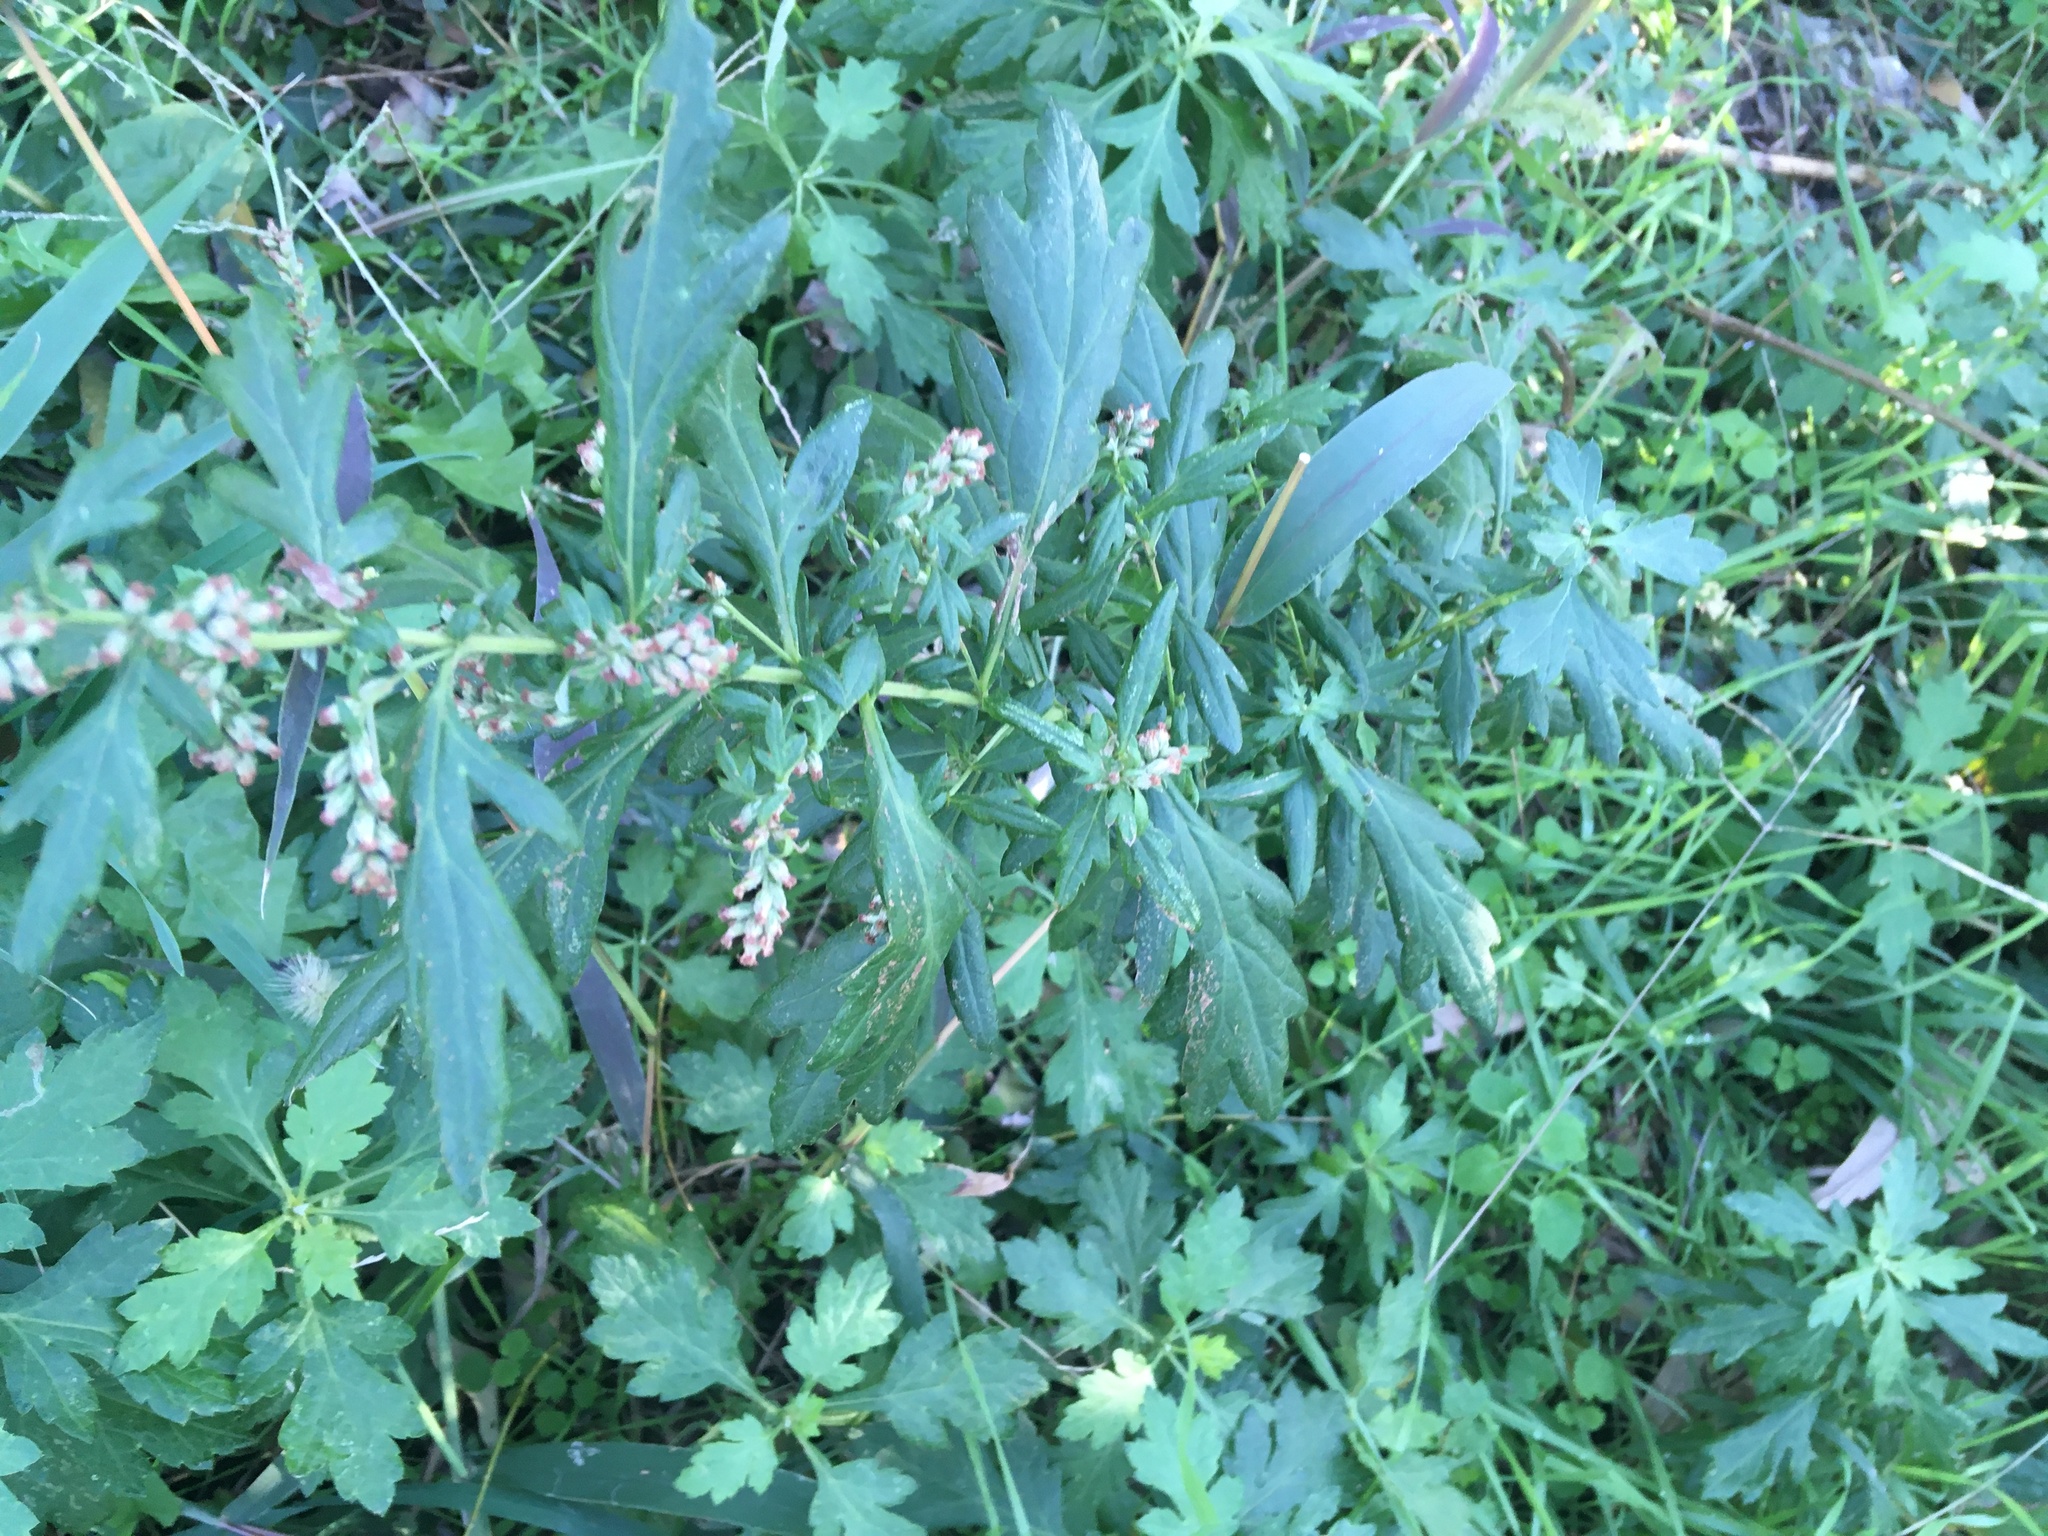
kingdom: Plantae
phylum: Tracheophyta
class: Magnoliopsida
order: Asterales
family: Asteraceae
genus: Artemisia
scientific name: Artemisia vulgaris
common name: Mugwort
